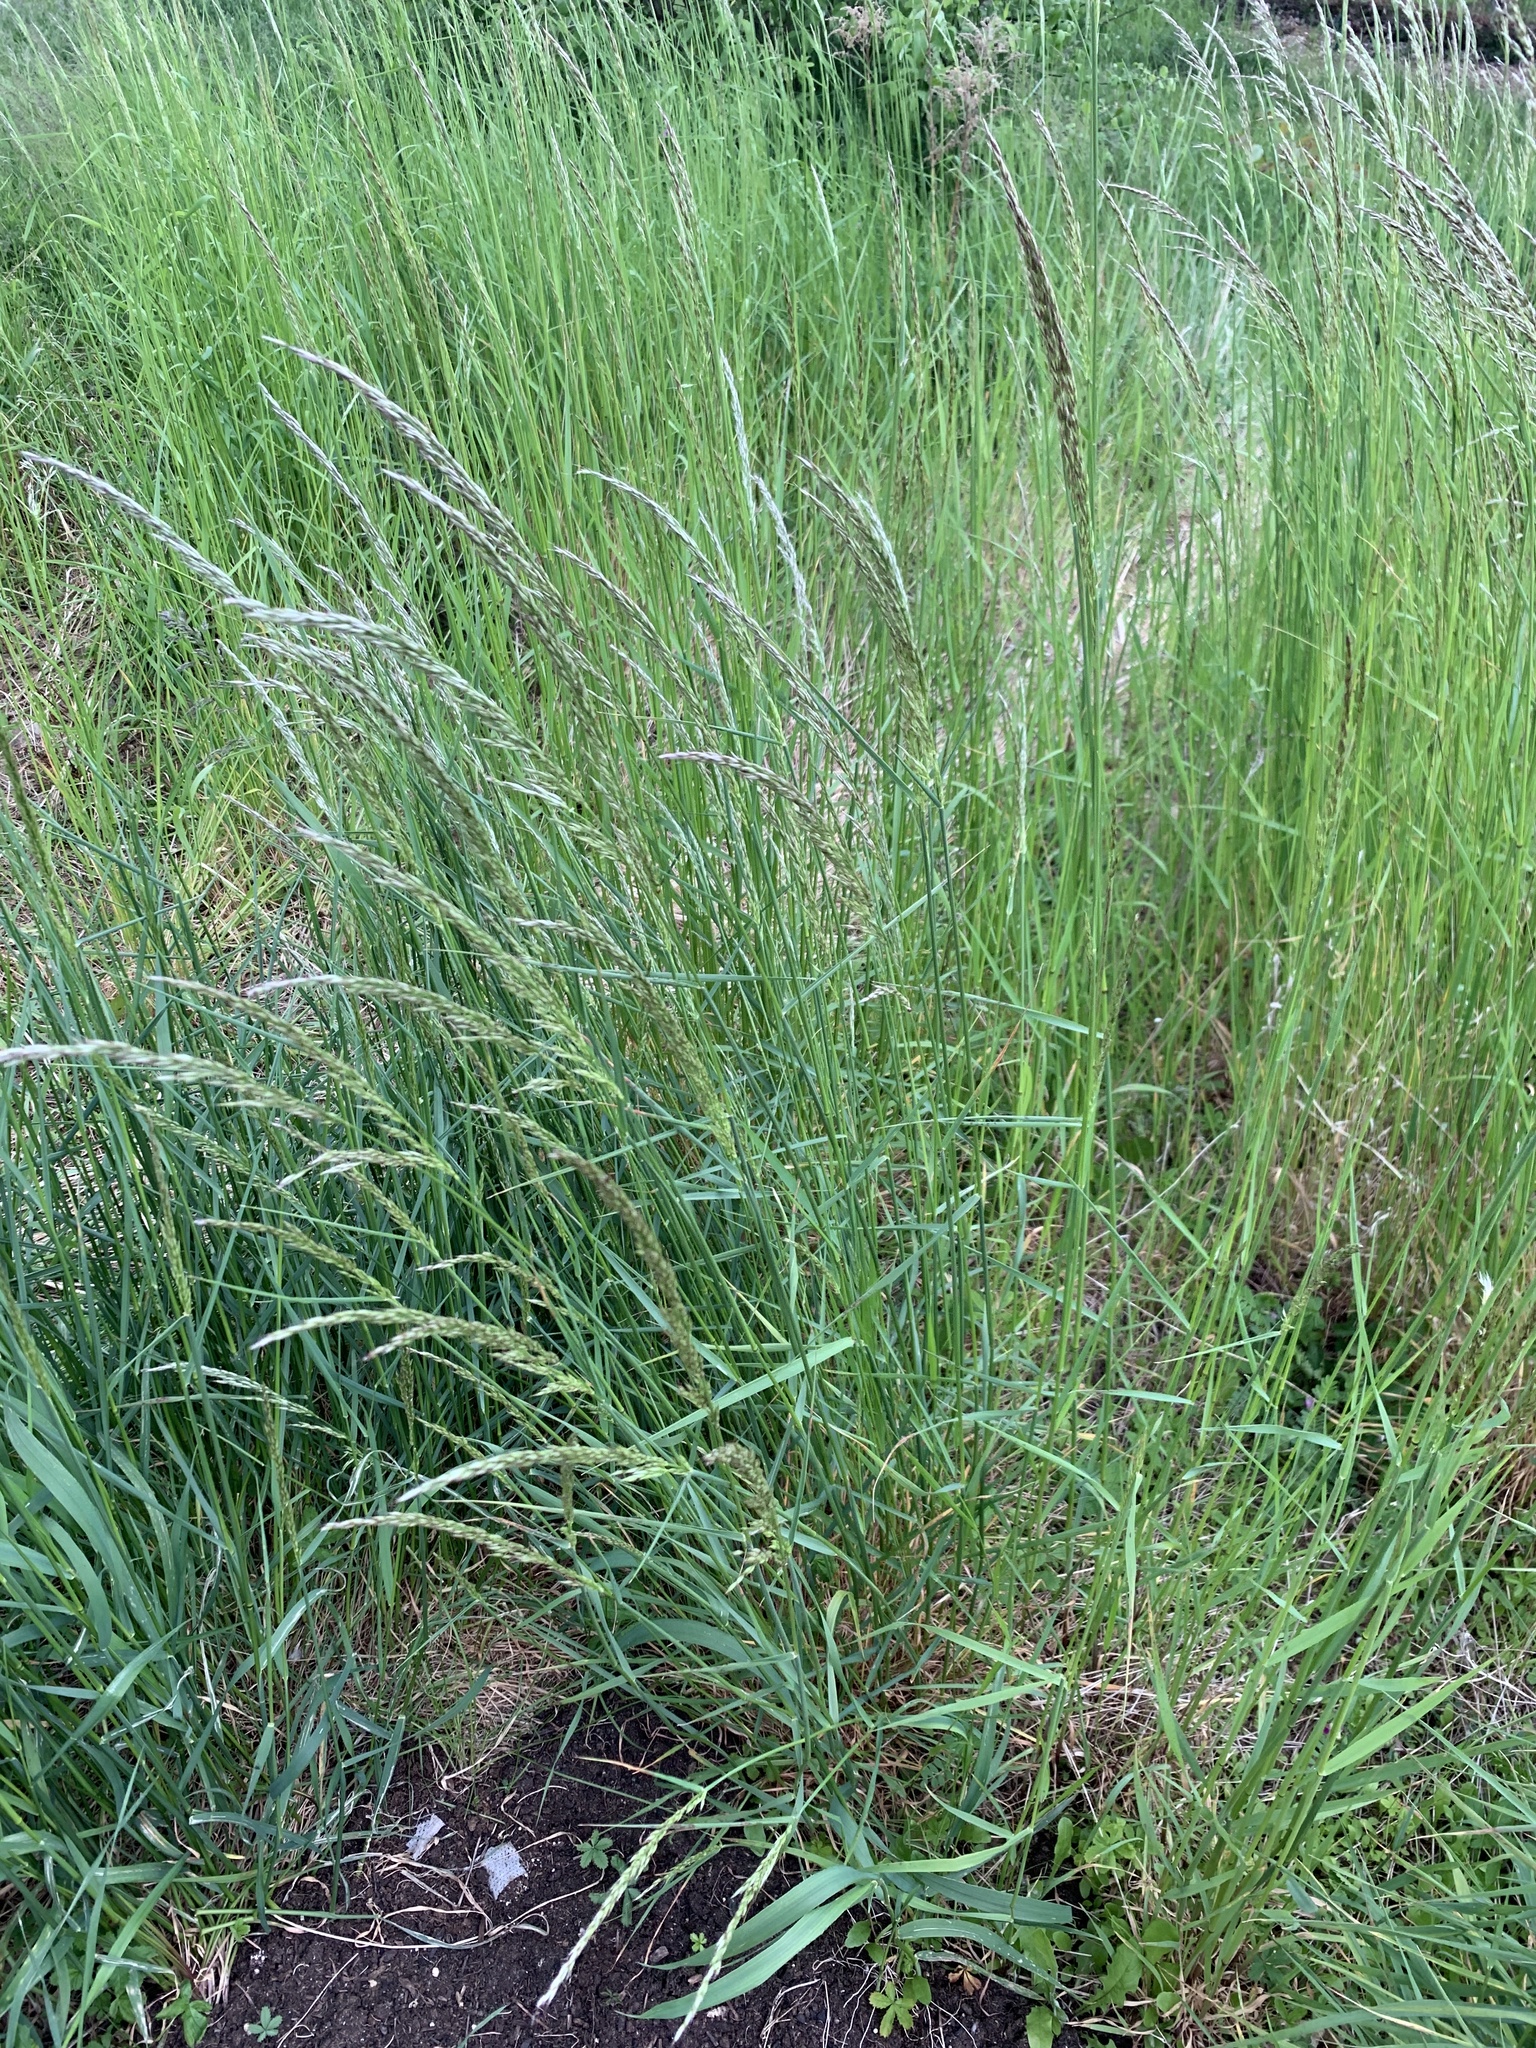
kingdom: Plantae
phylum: Tracheophyta
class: Liliopsida
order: Poales
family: Poaceae
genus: Arrhenatherum
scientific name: Arrhenatherum elatius
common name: Tall oatgrass
